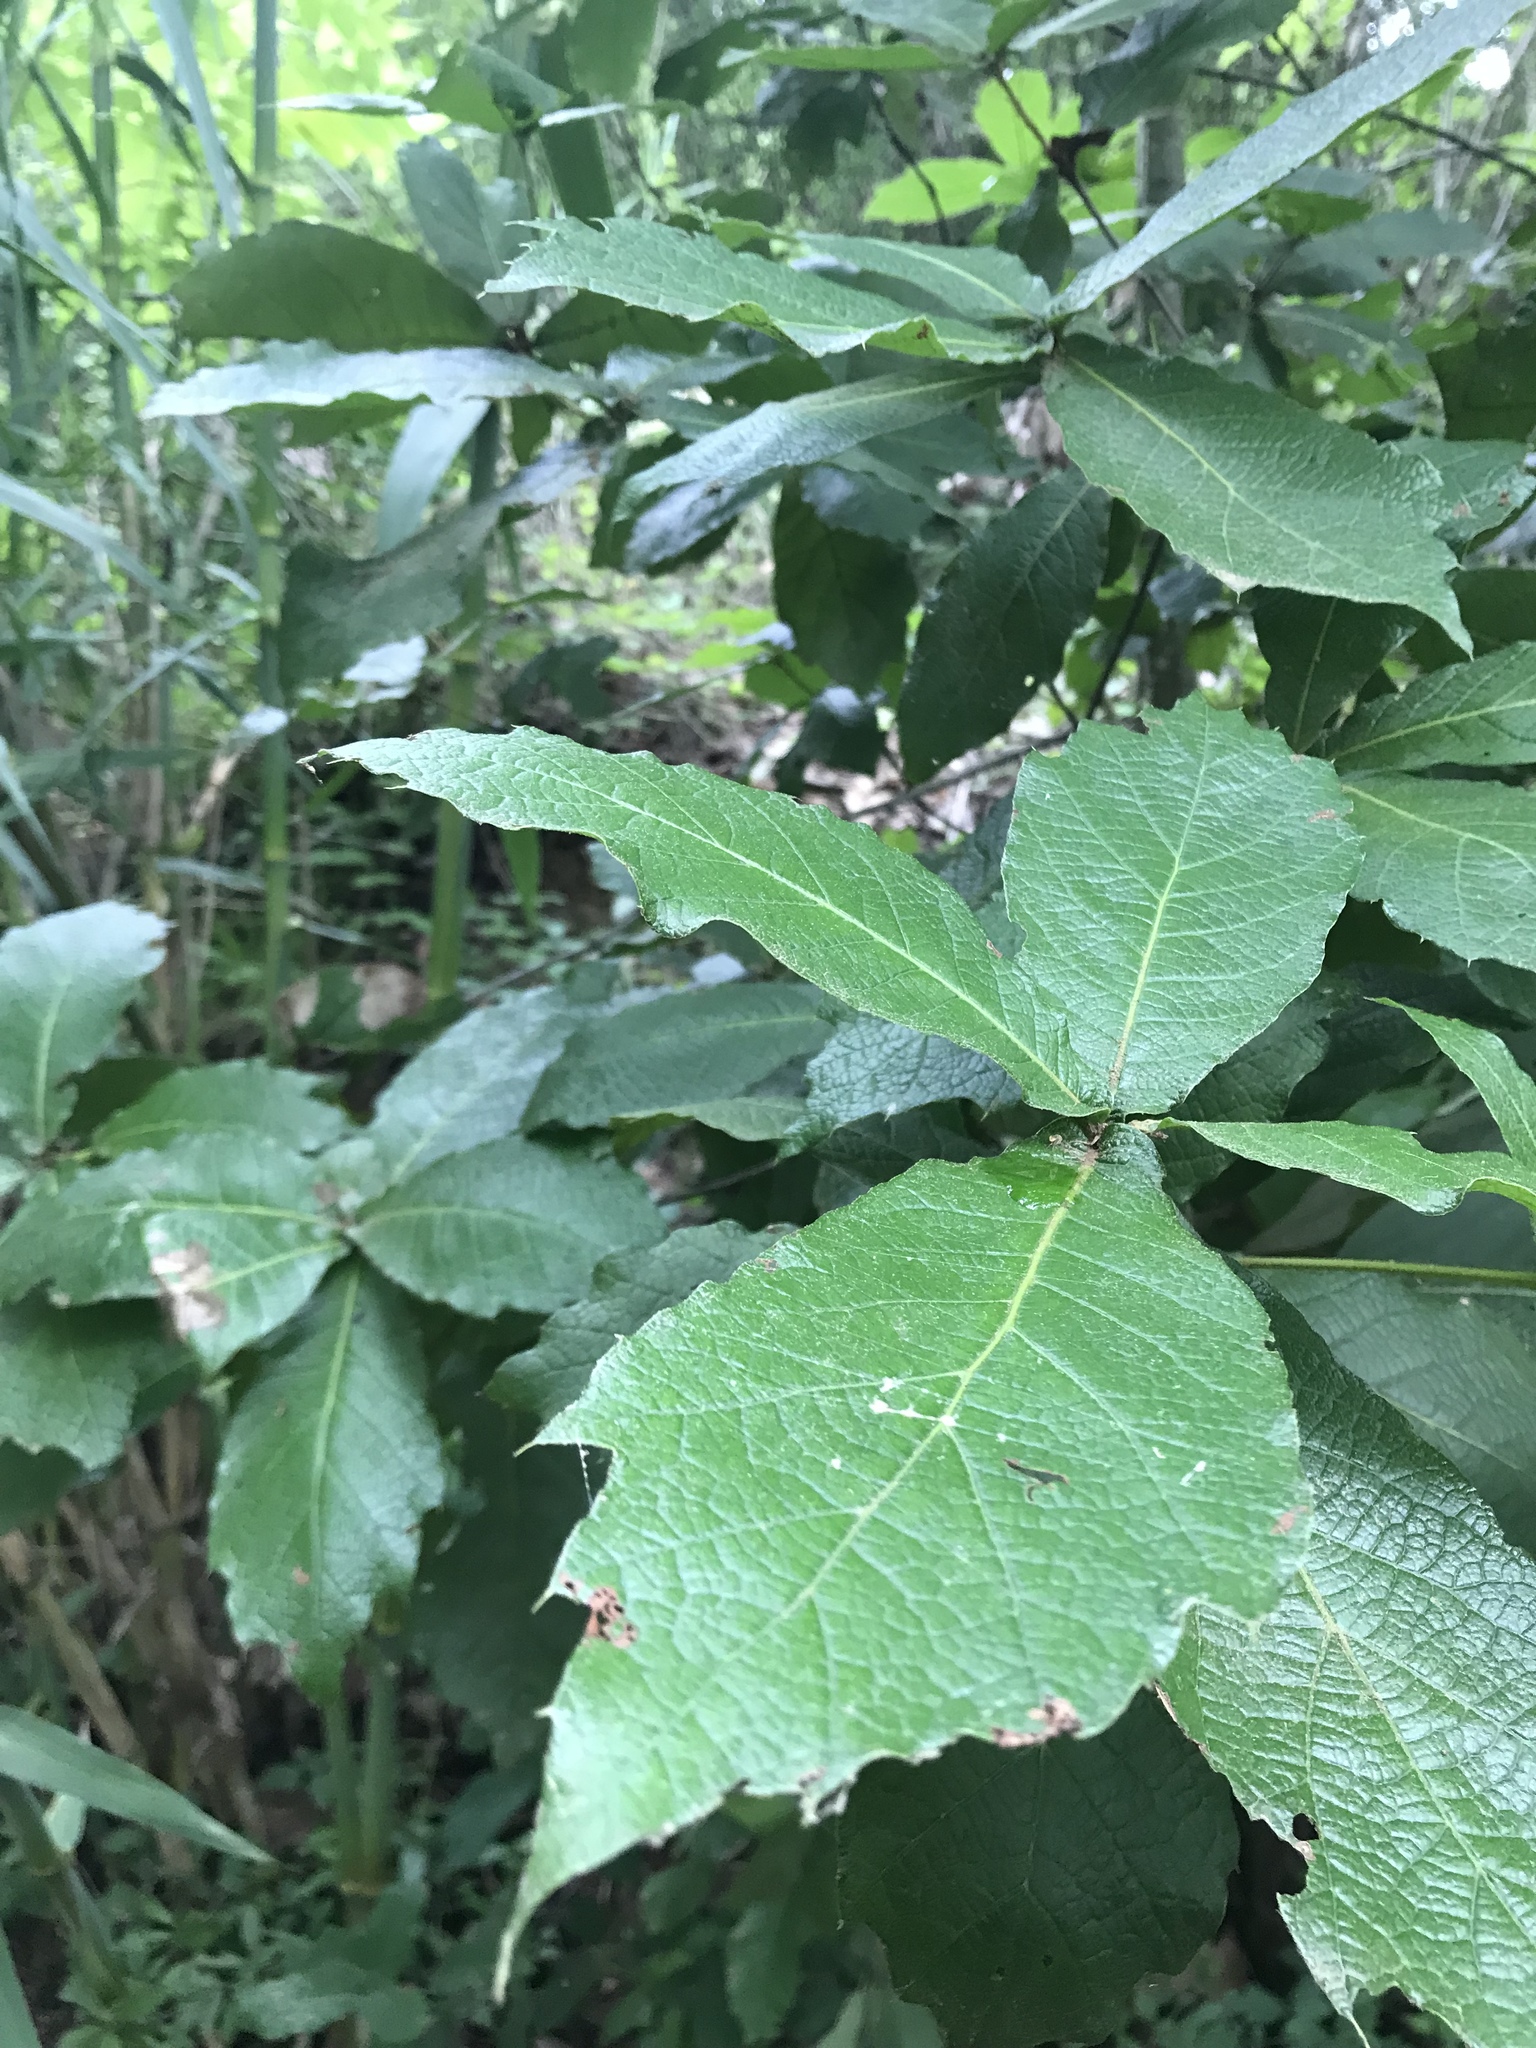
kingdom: Plantae
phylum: Tracheophyta
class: Magnoliopsida
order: Fagales
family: Fagaceae
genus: Quercus
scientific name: Quercus rysophylla
